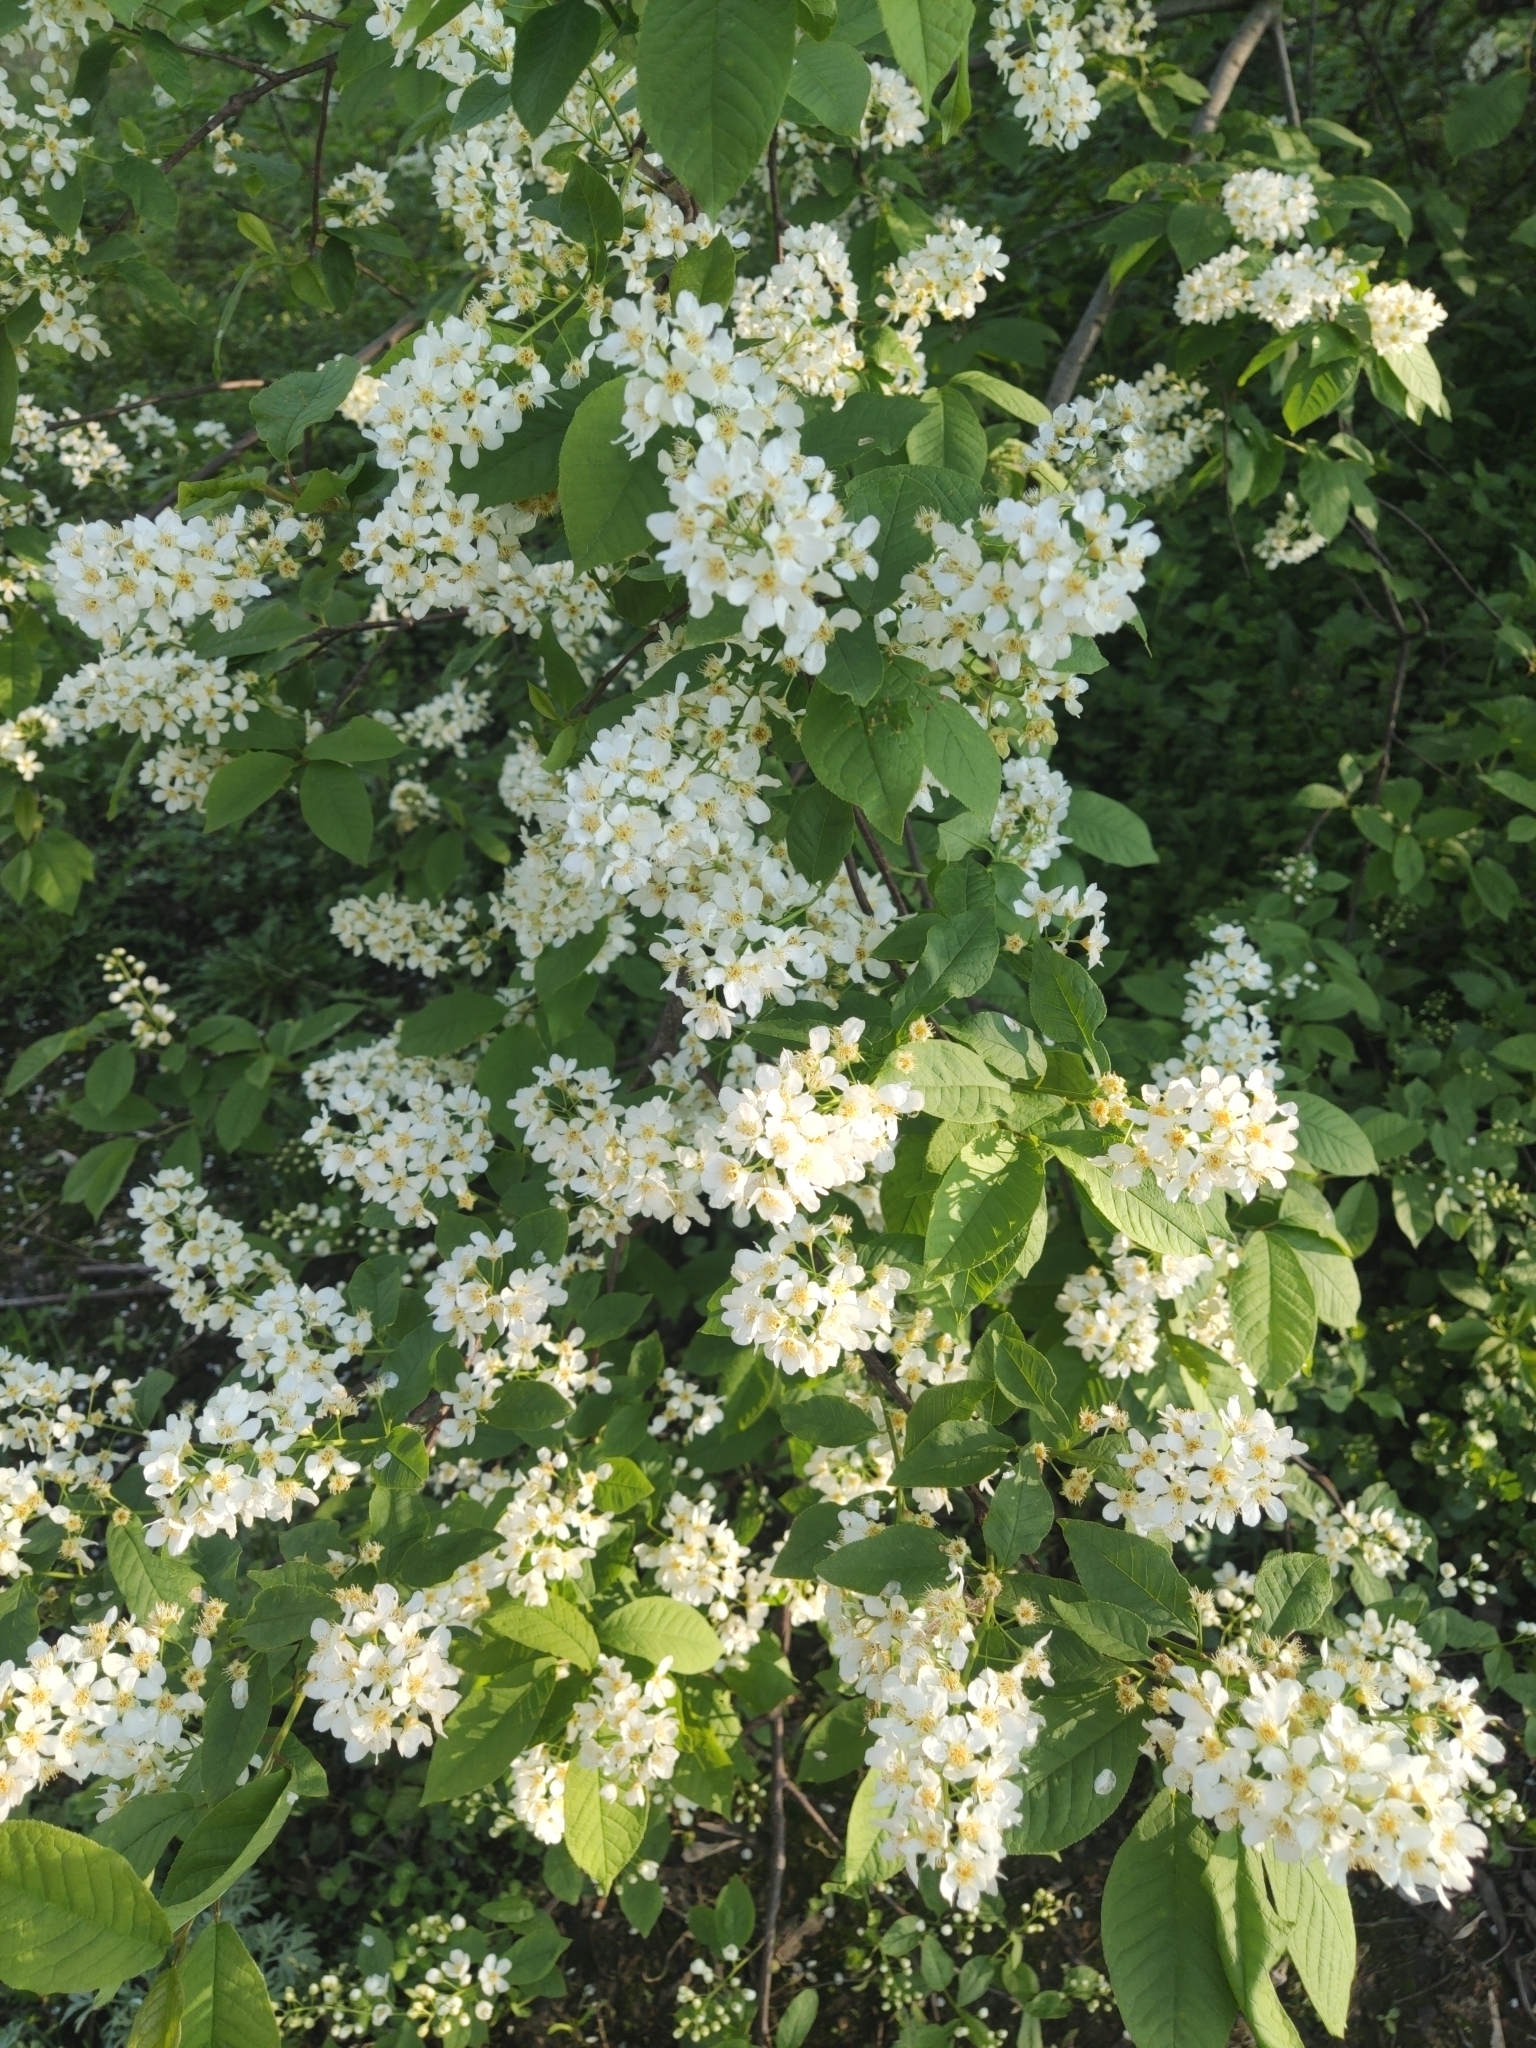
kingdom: Plantae
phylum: Tracheophyta
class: Magnoliopsida
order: Rosales
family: Rosaceae
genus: Prunus
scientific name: Prunus padus
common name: Bird cherry
